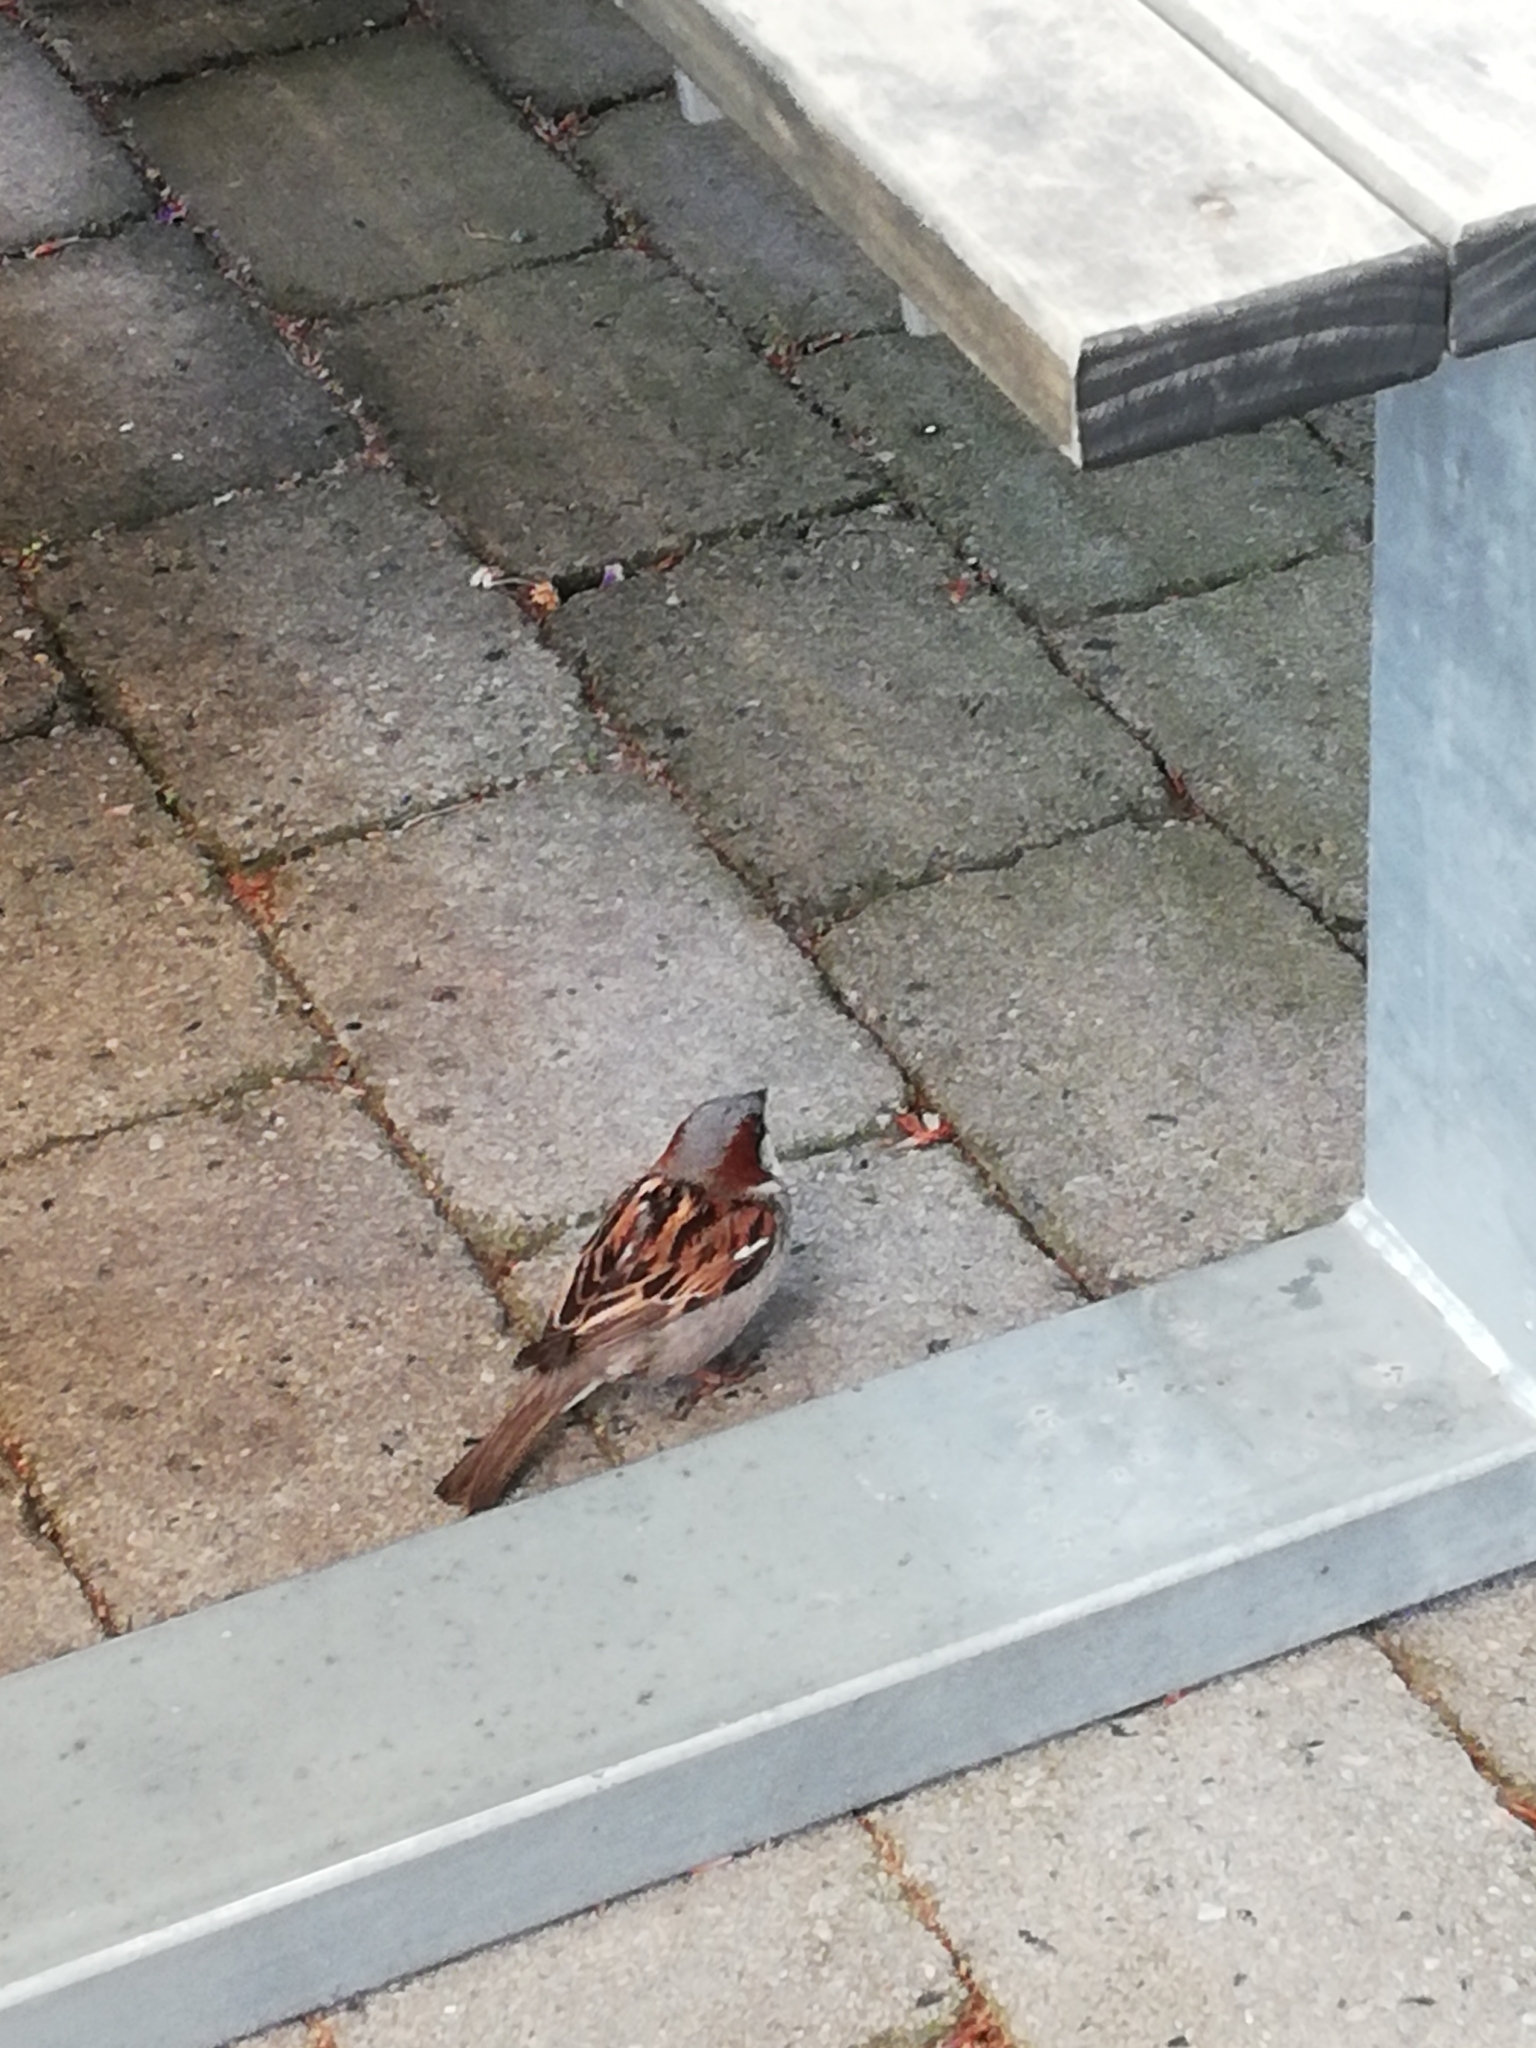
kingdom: Animalia
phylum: Chordata
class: Aves
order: Passeriformes
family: Passeridae
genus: Passer
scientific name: Passer domesticus
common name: House sparrow
